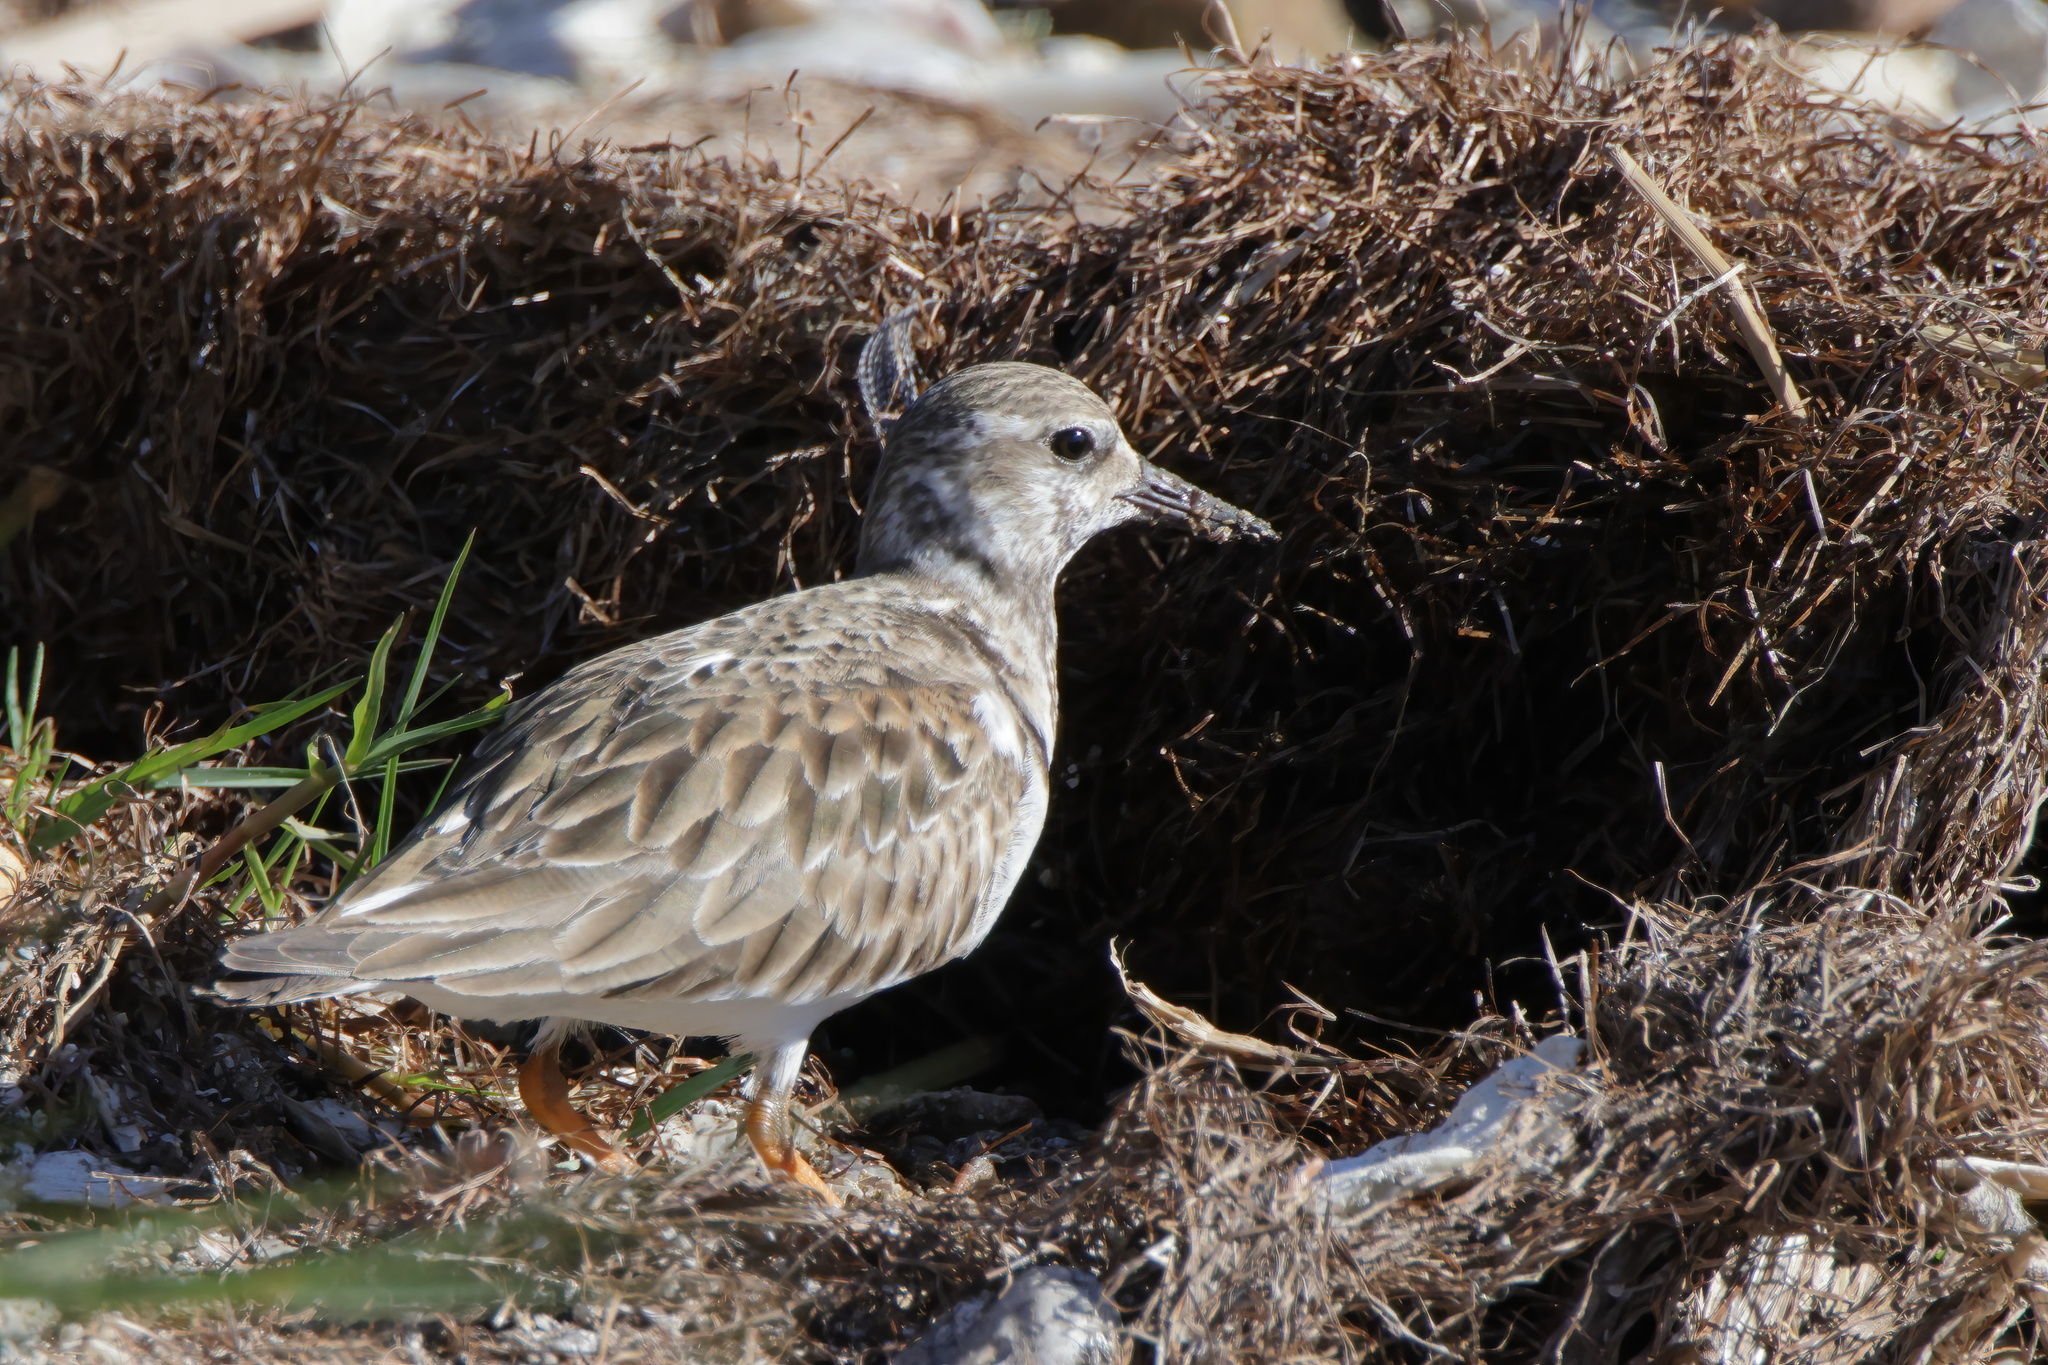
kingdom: Animalia
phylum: Chordata
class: Aves
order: Charadriiformes
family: Scolopacidae
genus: Arenaria
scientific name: Arenaria interpres
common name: Ruddy turnstone
